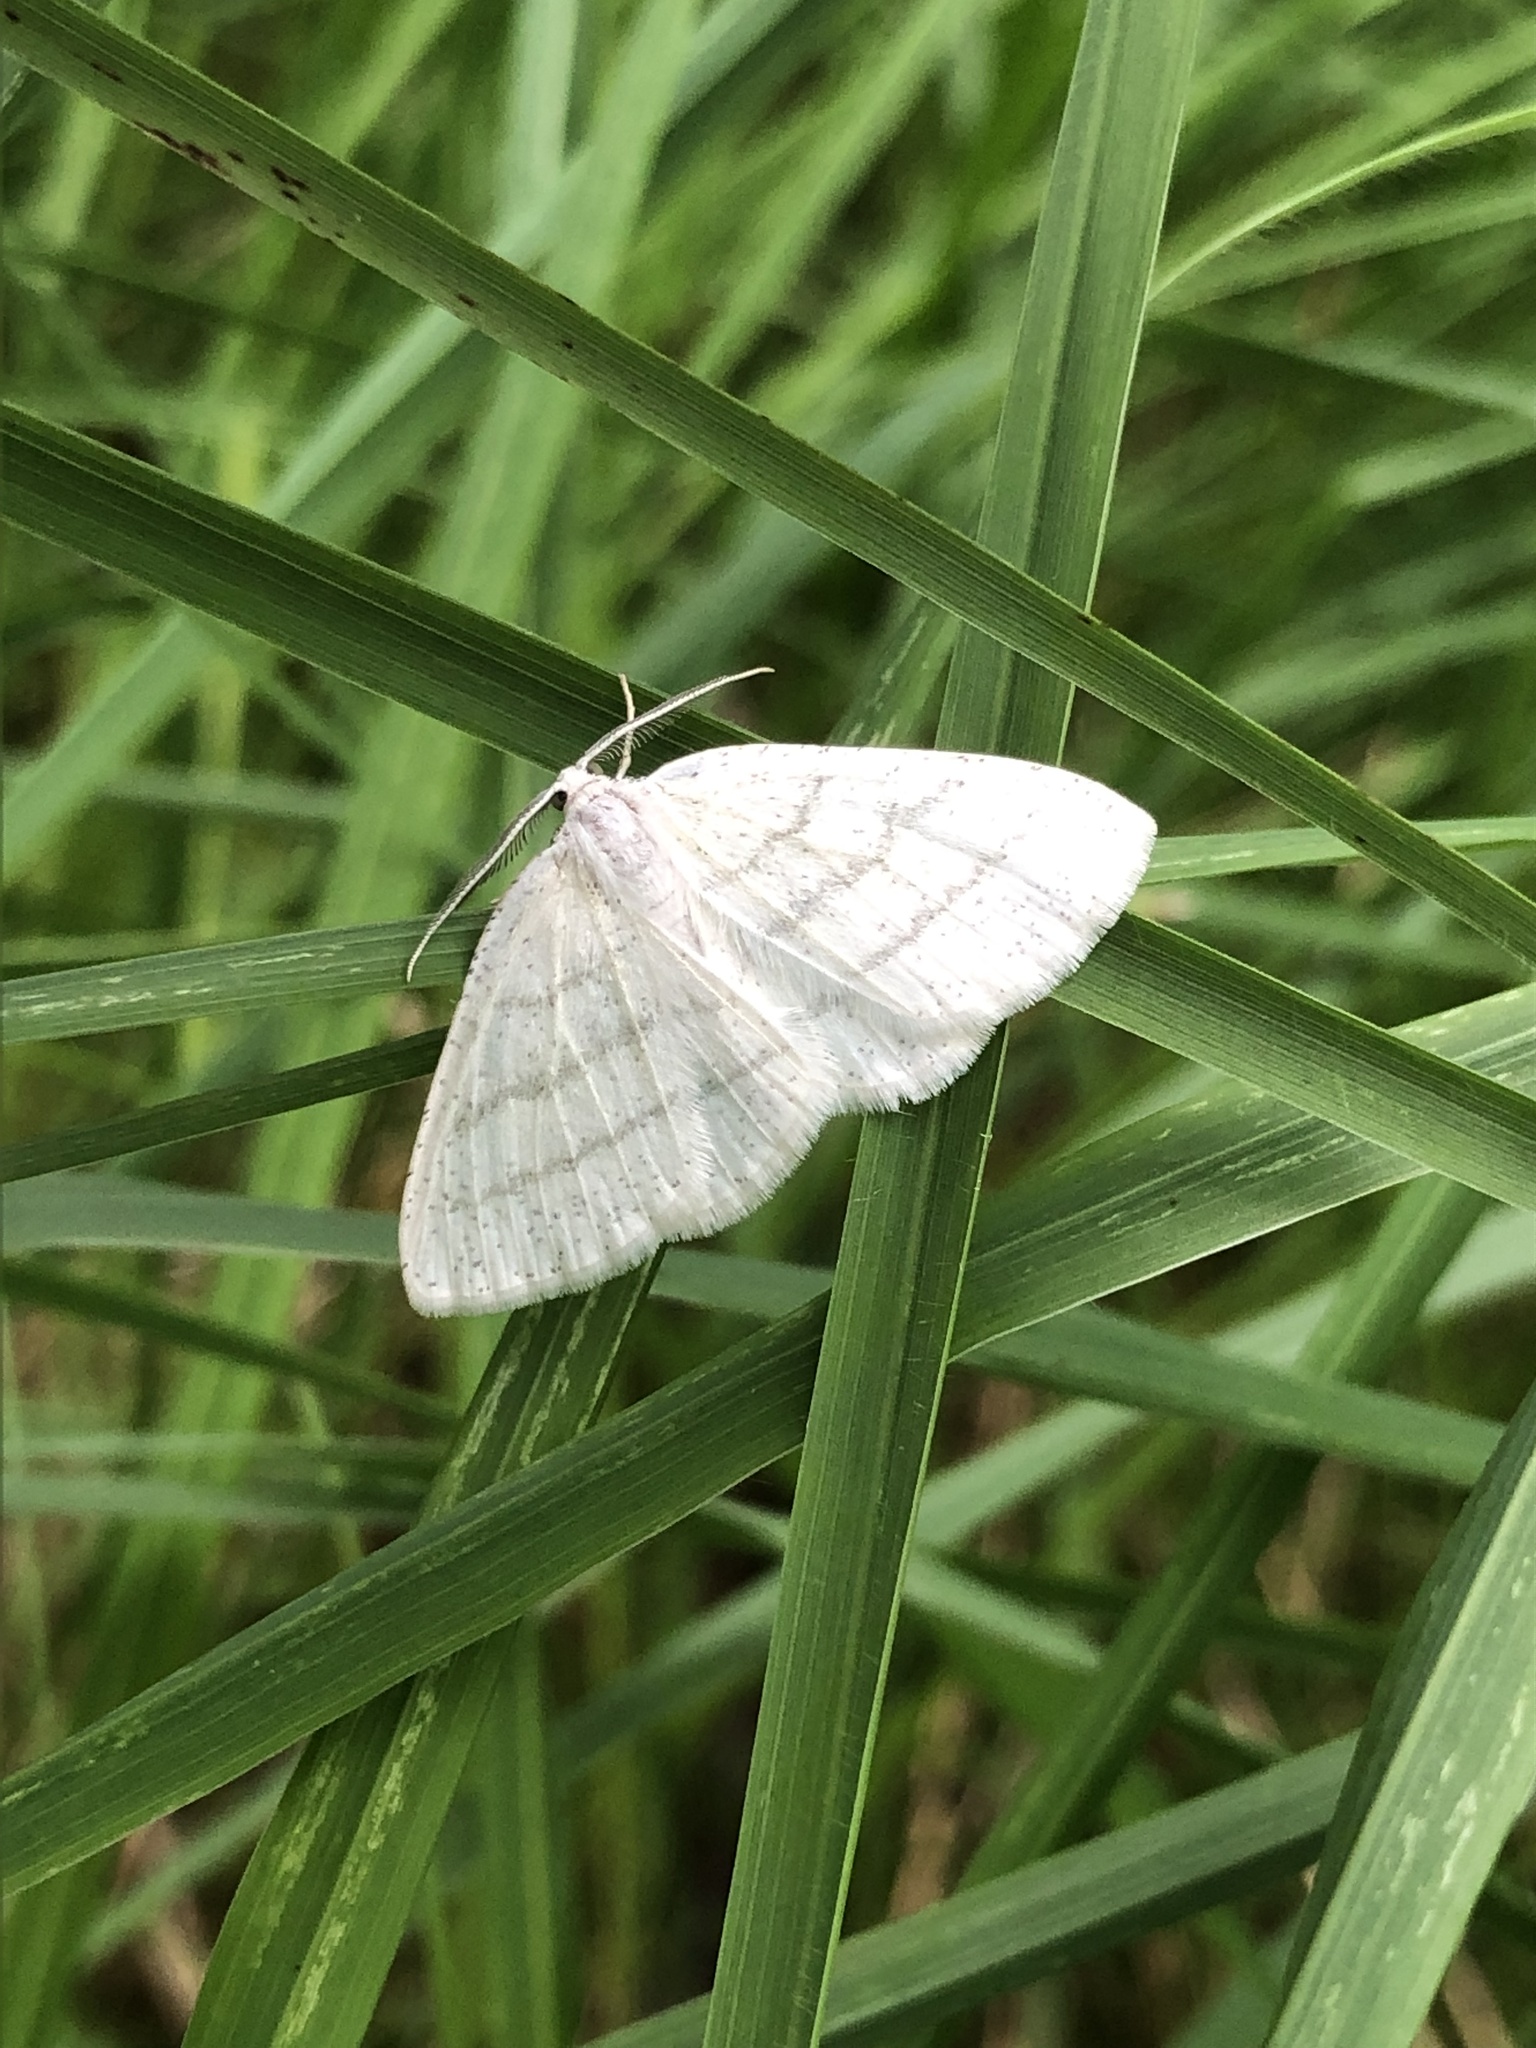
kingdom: Animalia
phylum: Arthropoda
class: Insecta
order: Lepidoptera
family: Geometridae
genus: Cabera
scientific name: Cabera pusaria
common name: Common white wave
